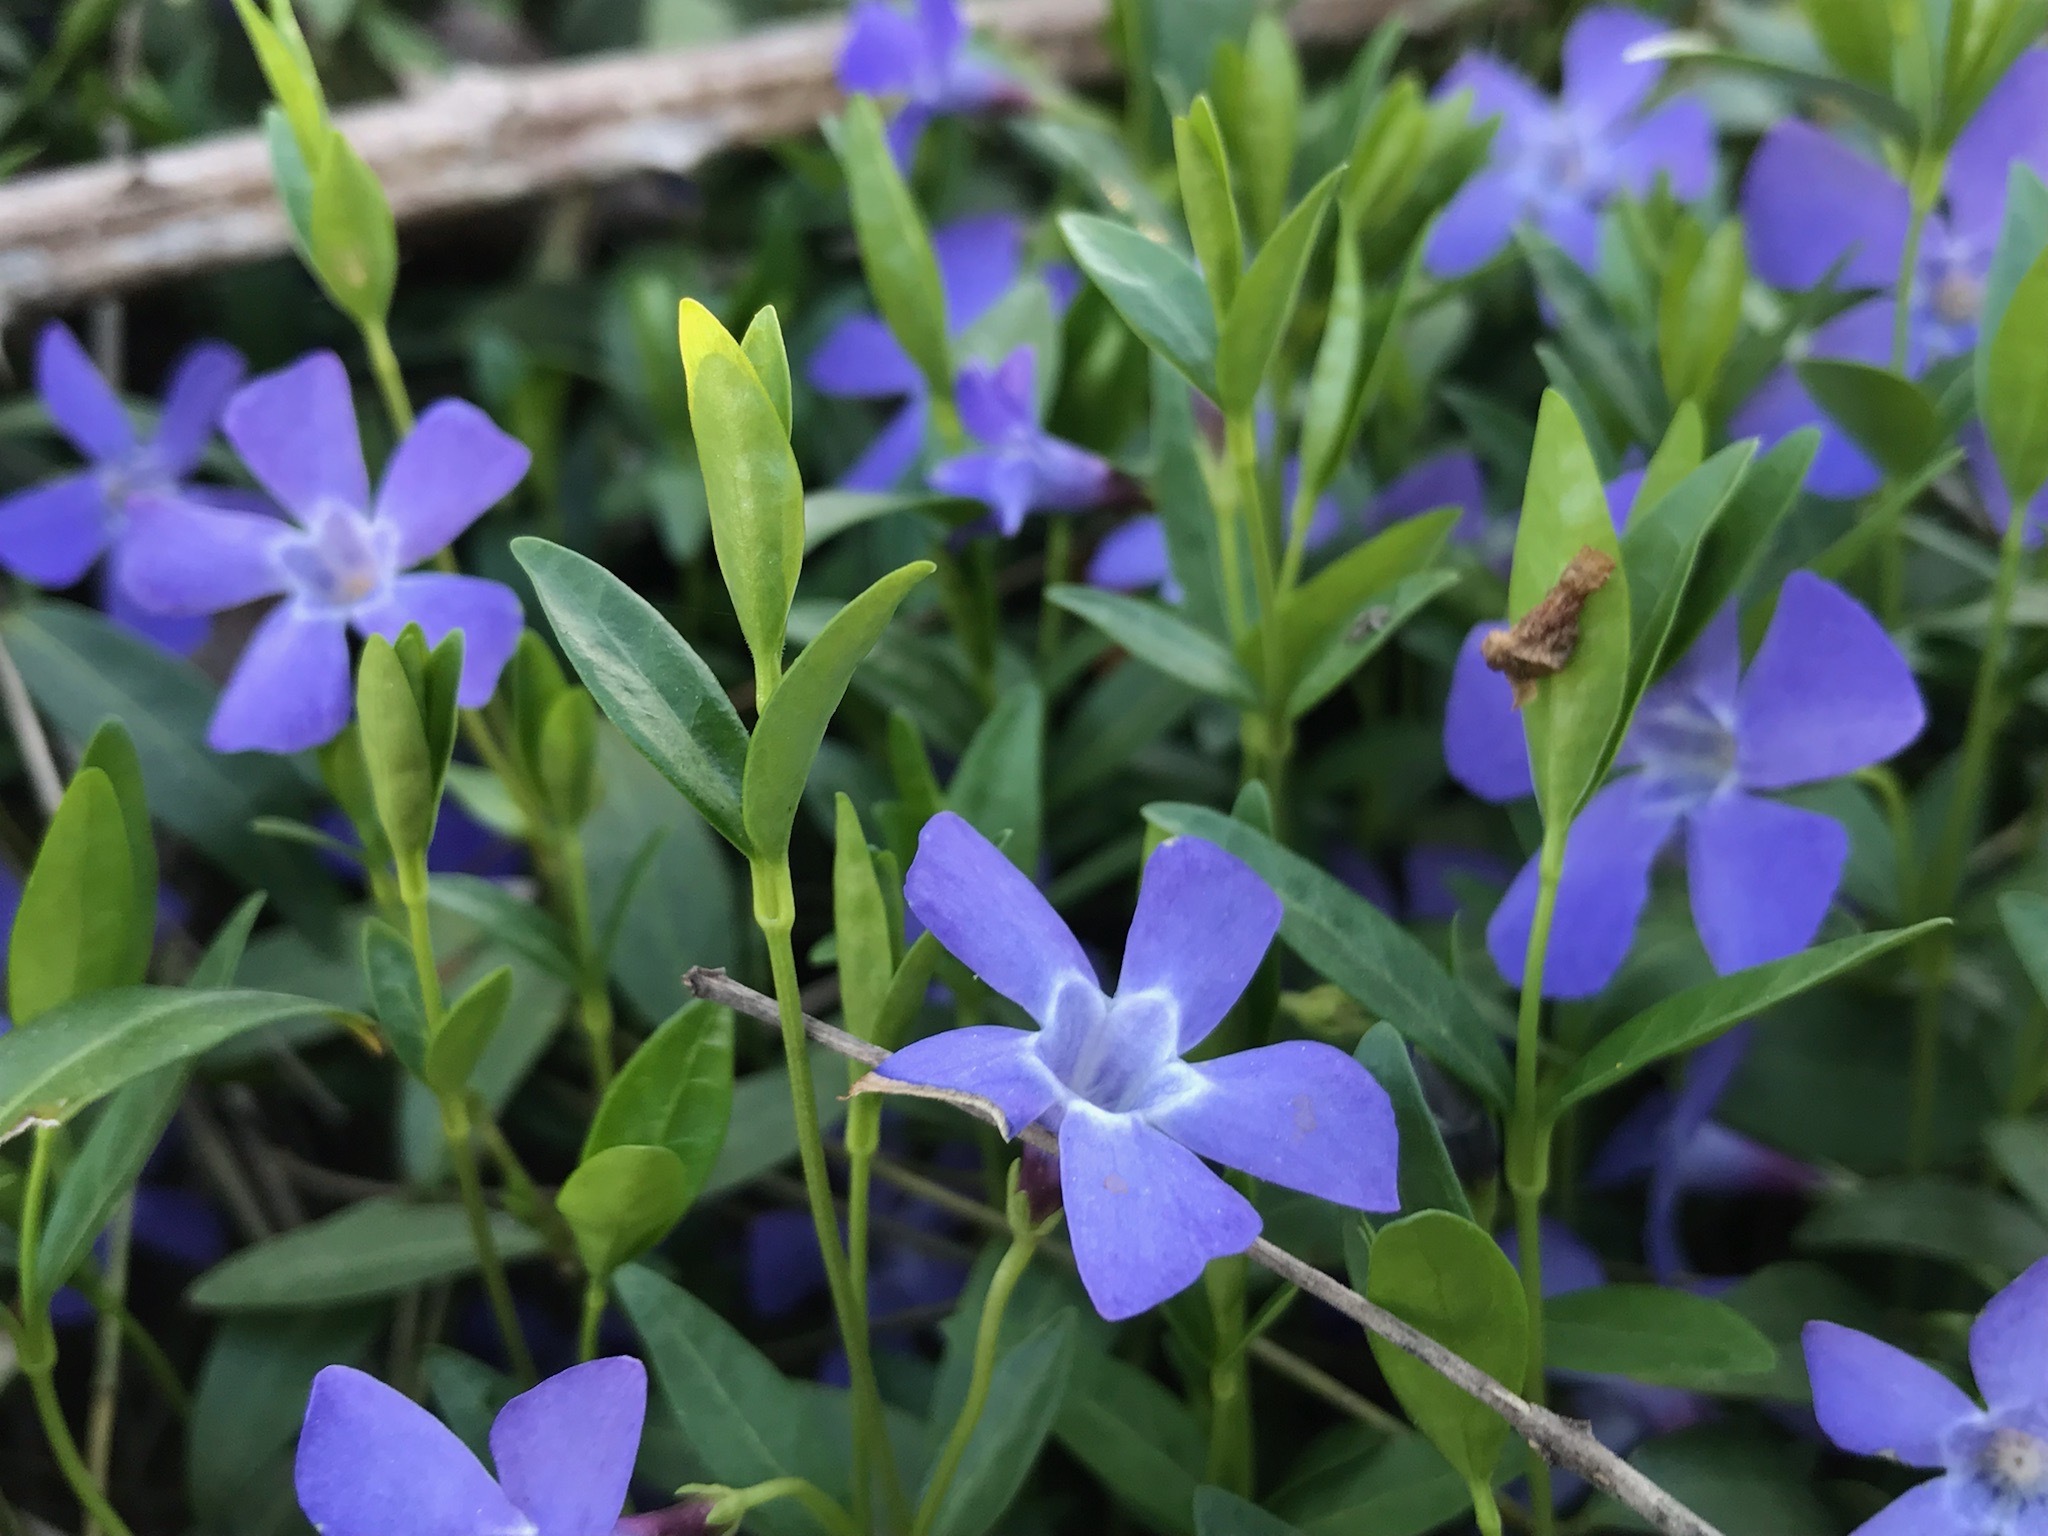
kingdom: Plantae
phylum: Tracheophyta
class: Magnoliopsida
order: Gentianales
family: Apocynaceae
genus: Vinca
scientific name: Vinca minor
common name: Lesser periwinkle
